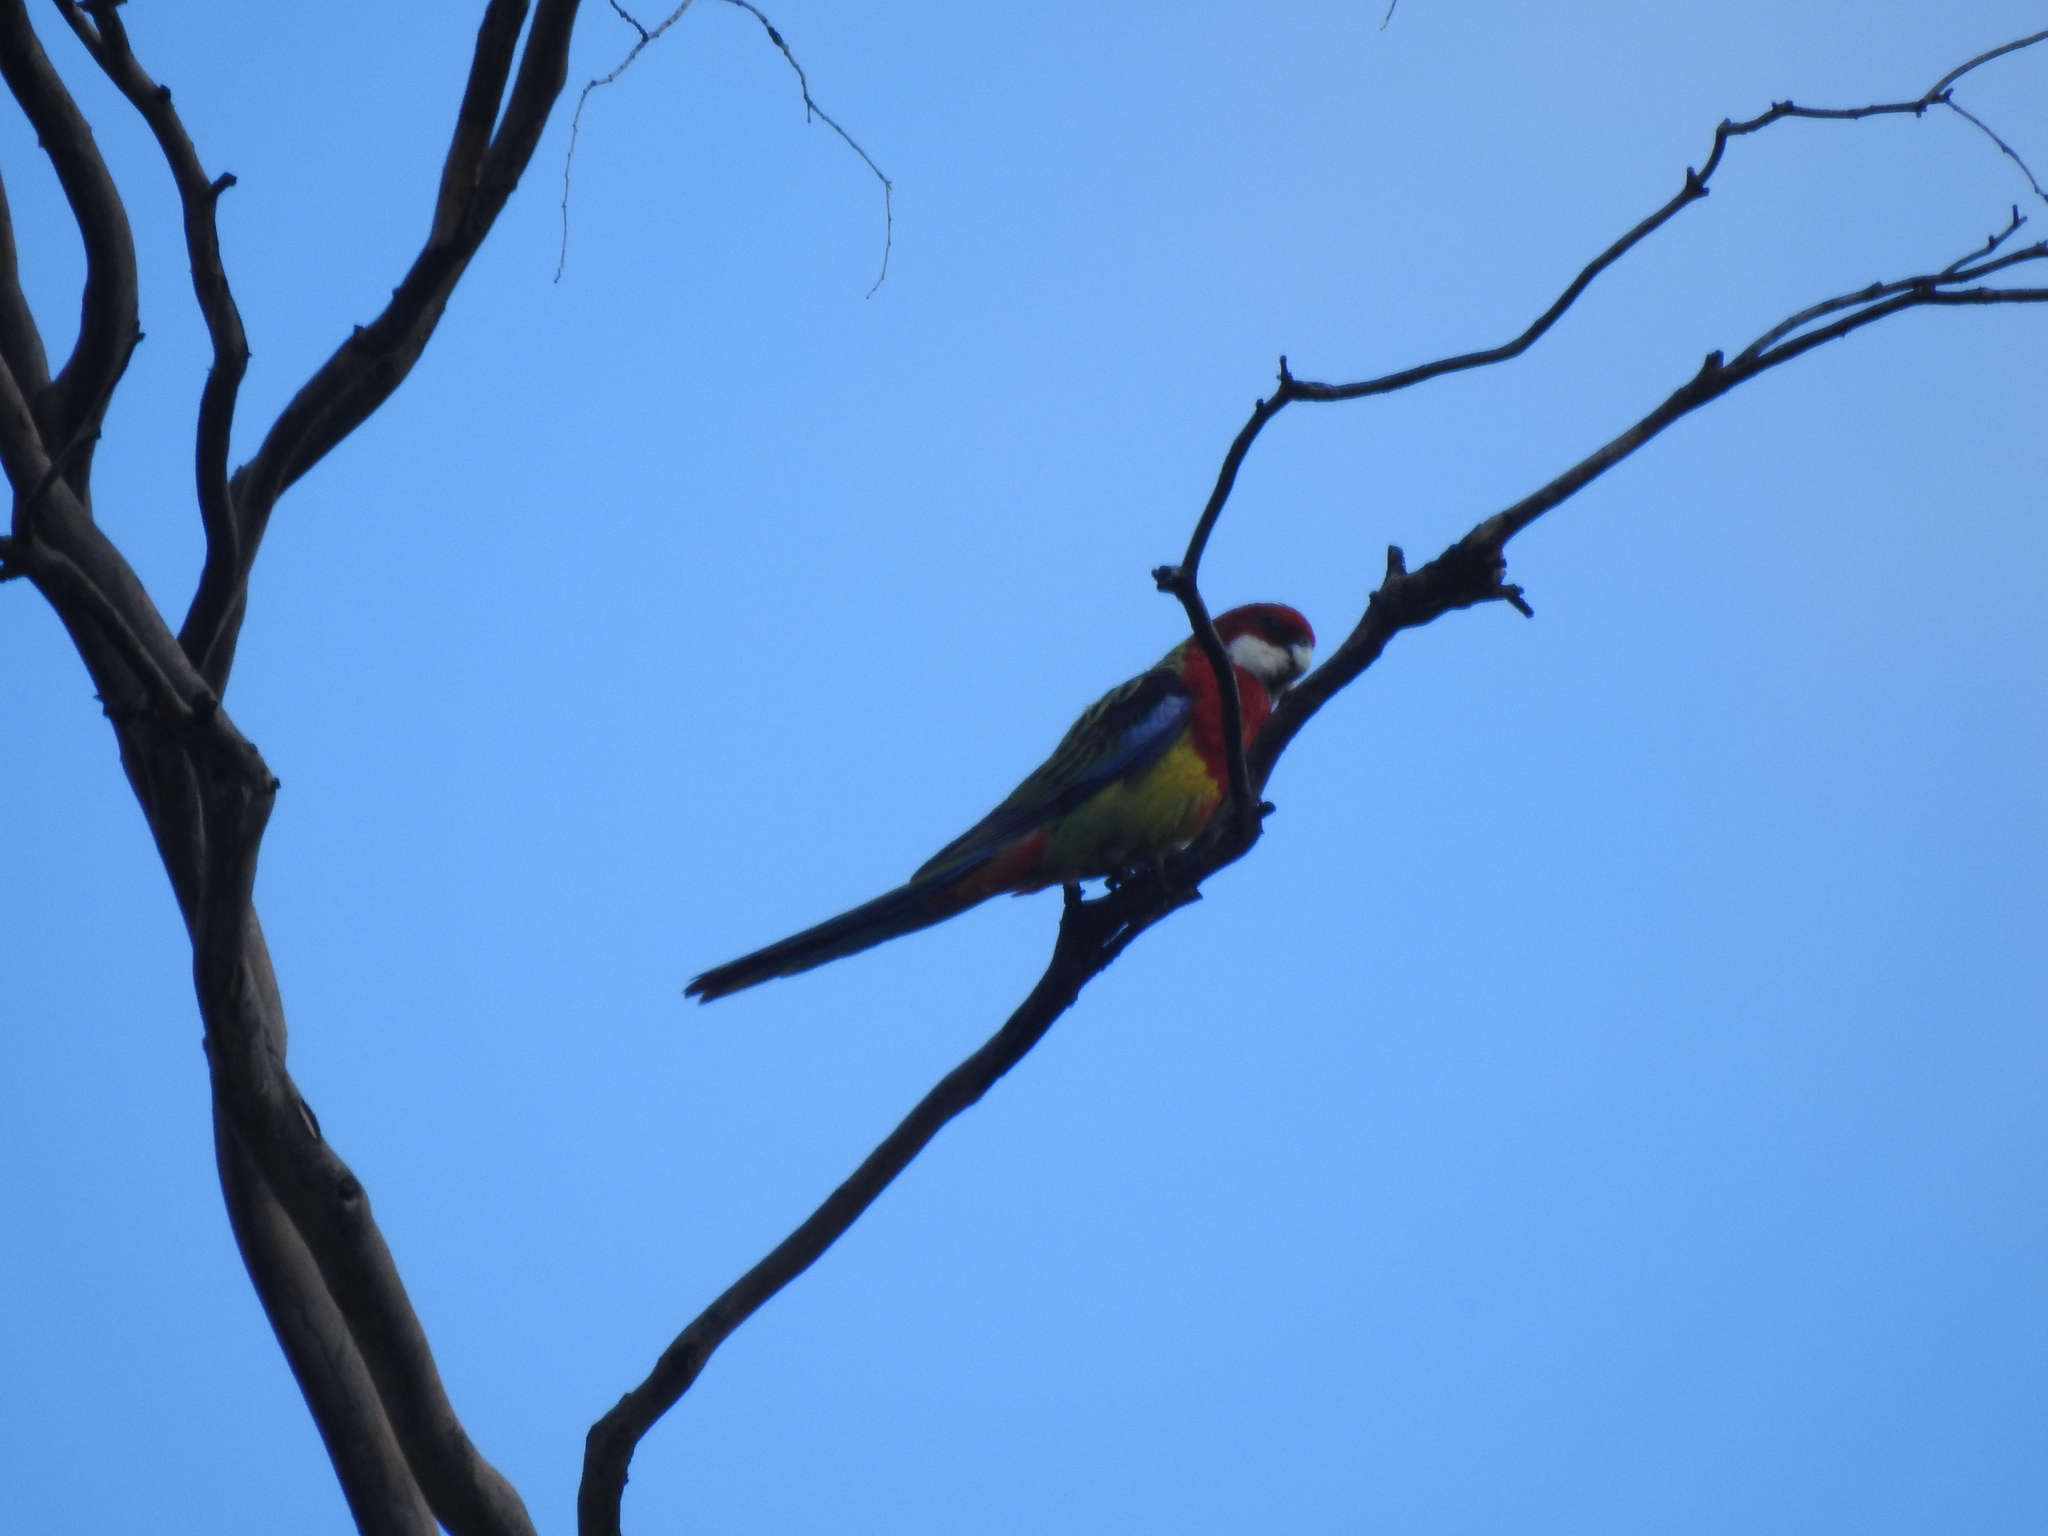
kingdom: Animalia
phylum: Chordata
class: Aves
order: Psittaciformes
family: Psittacidae
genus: Platycercus
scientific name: Platycercus eximius
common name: Eastern rosella
